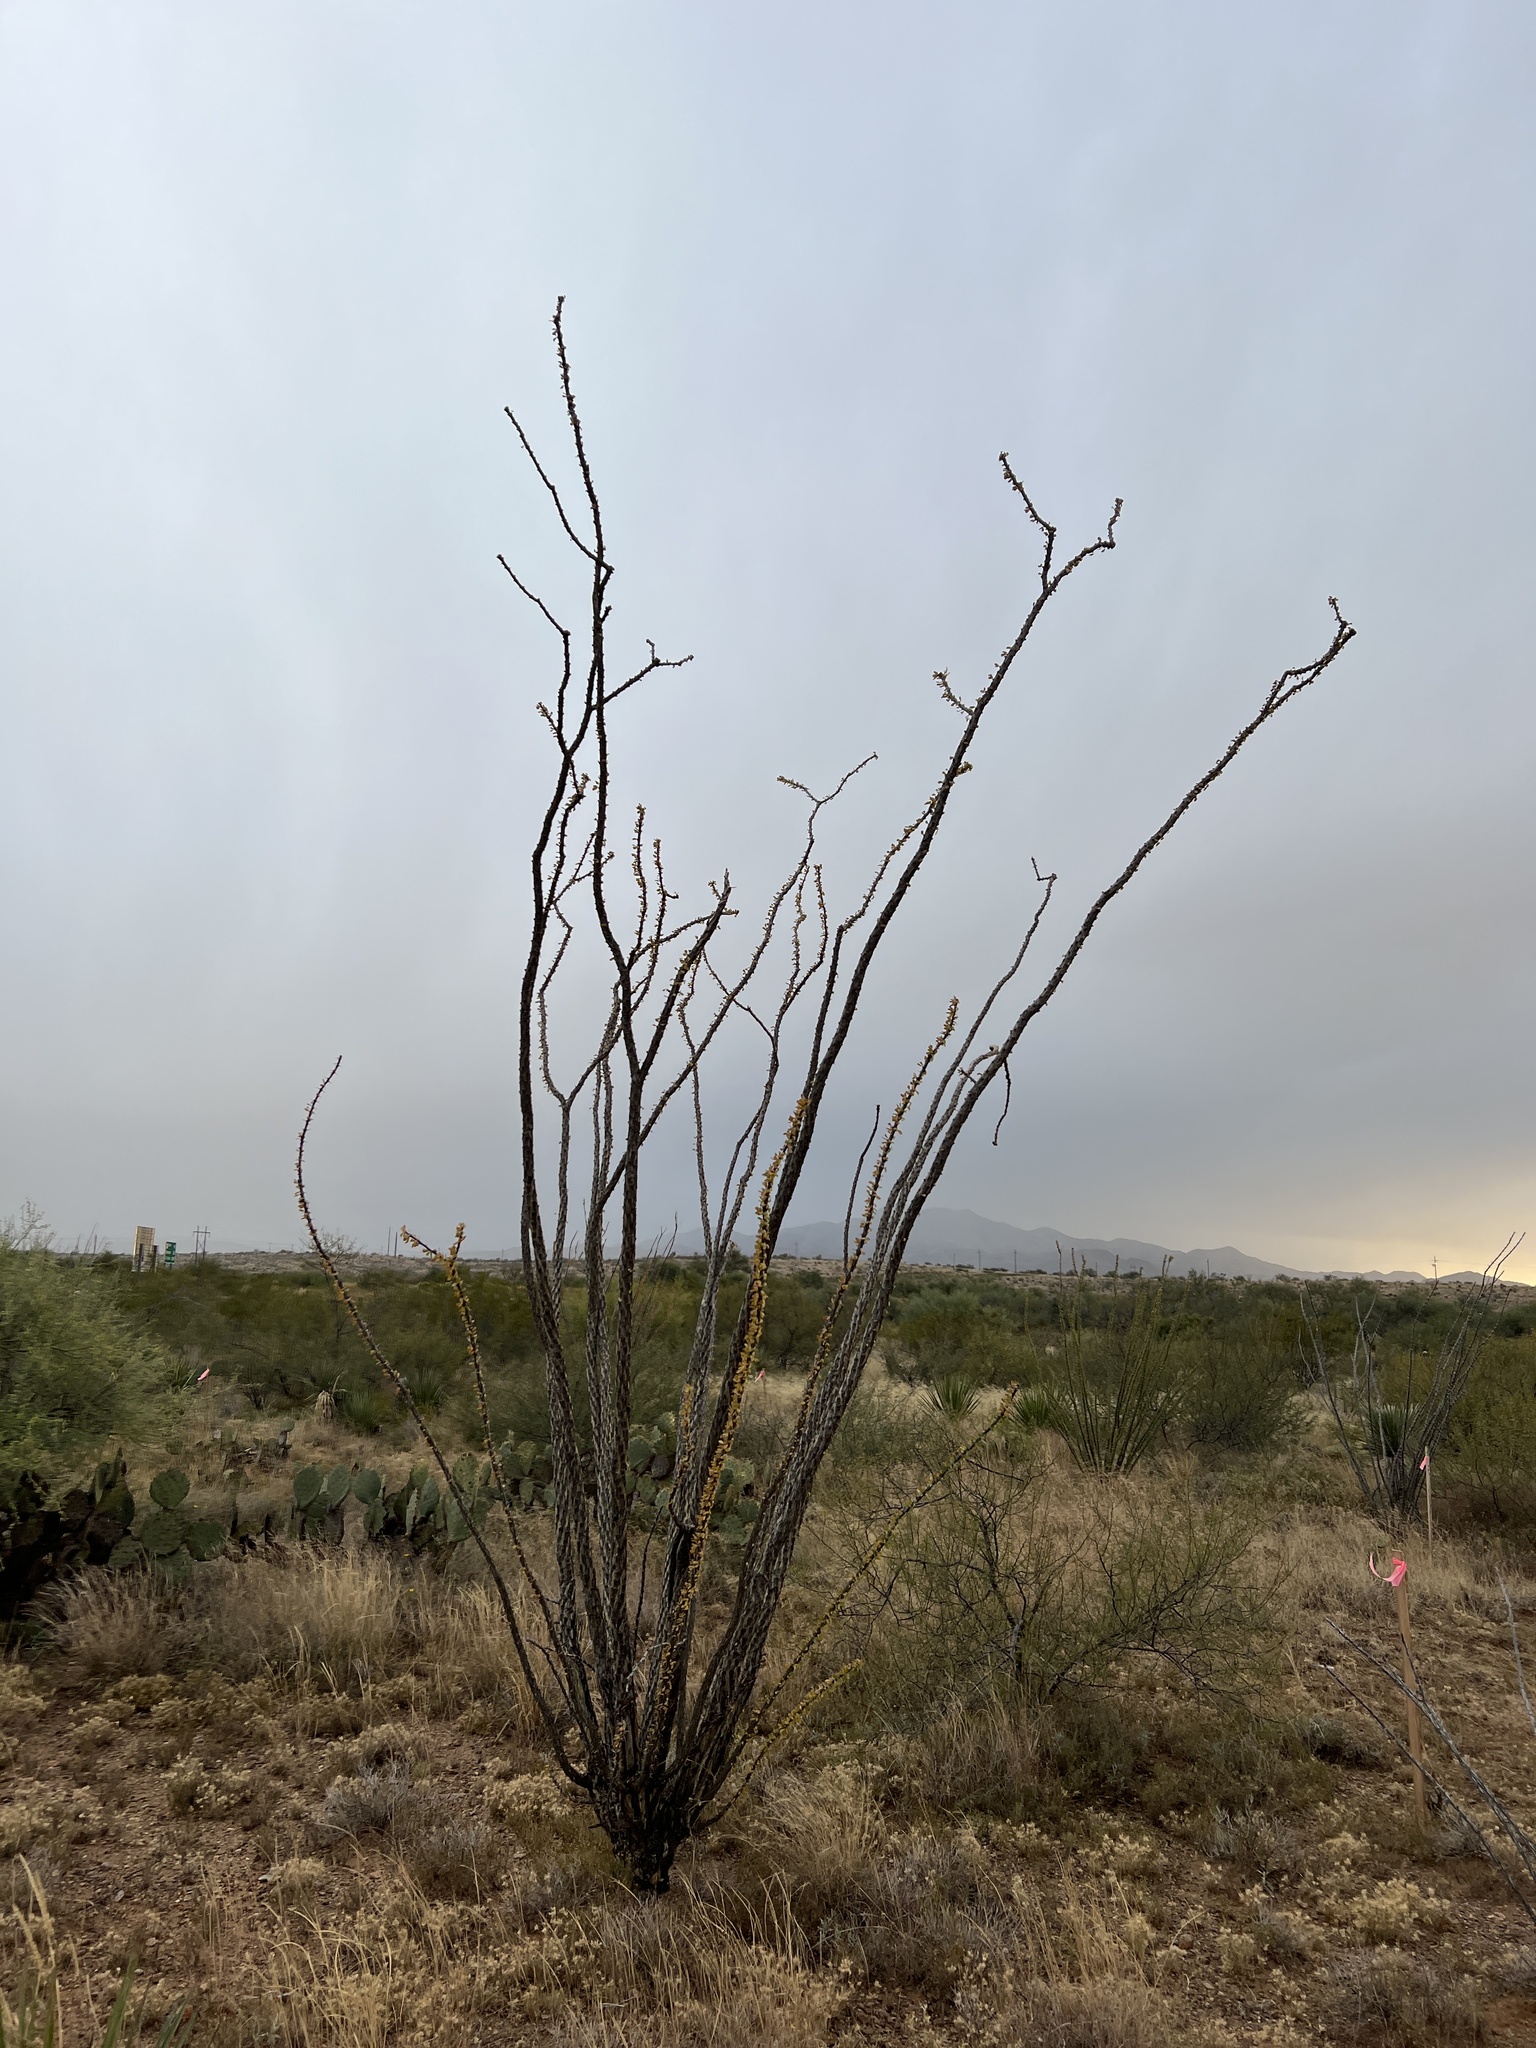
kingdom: Plantae
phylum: Tracheophyta
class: Magnoliopsida
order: Ericales
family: Fouquieriaceae
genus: Fouquieria
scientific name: Fouquieria splendens
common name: Vine-cactus
